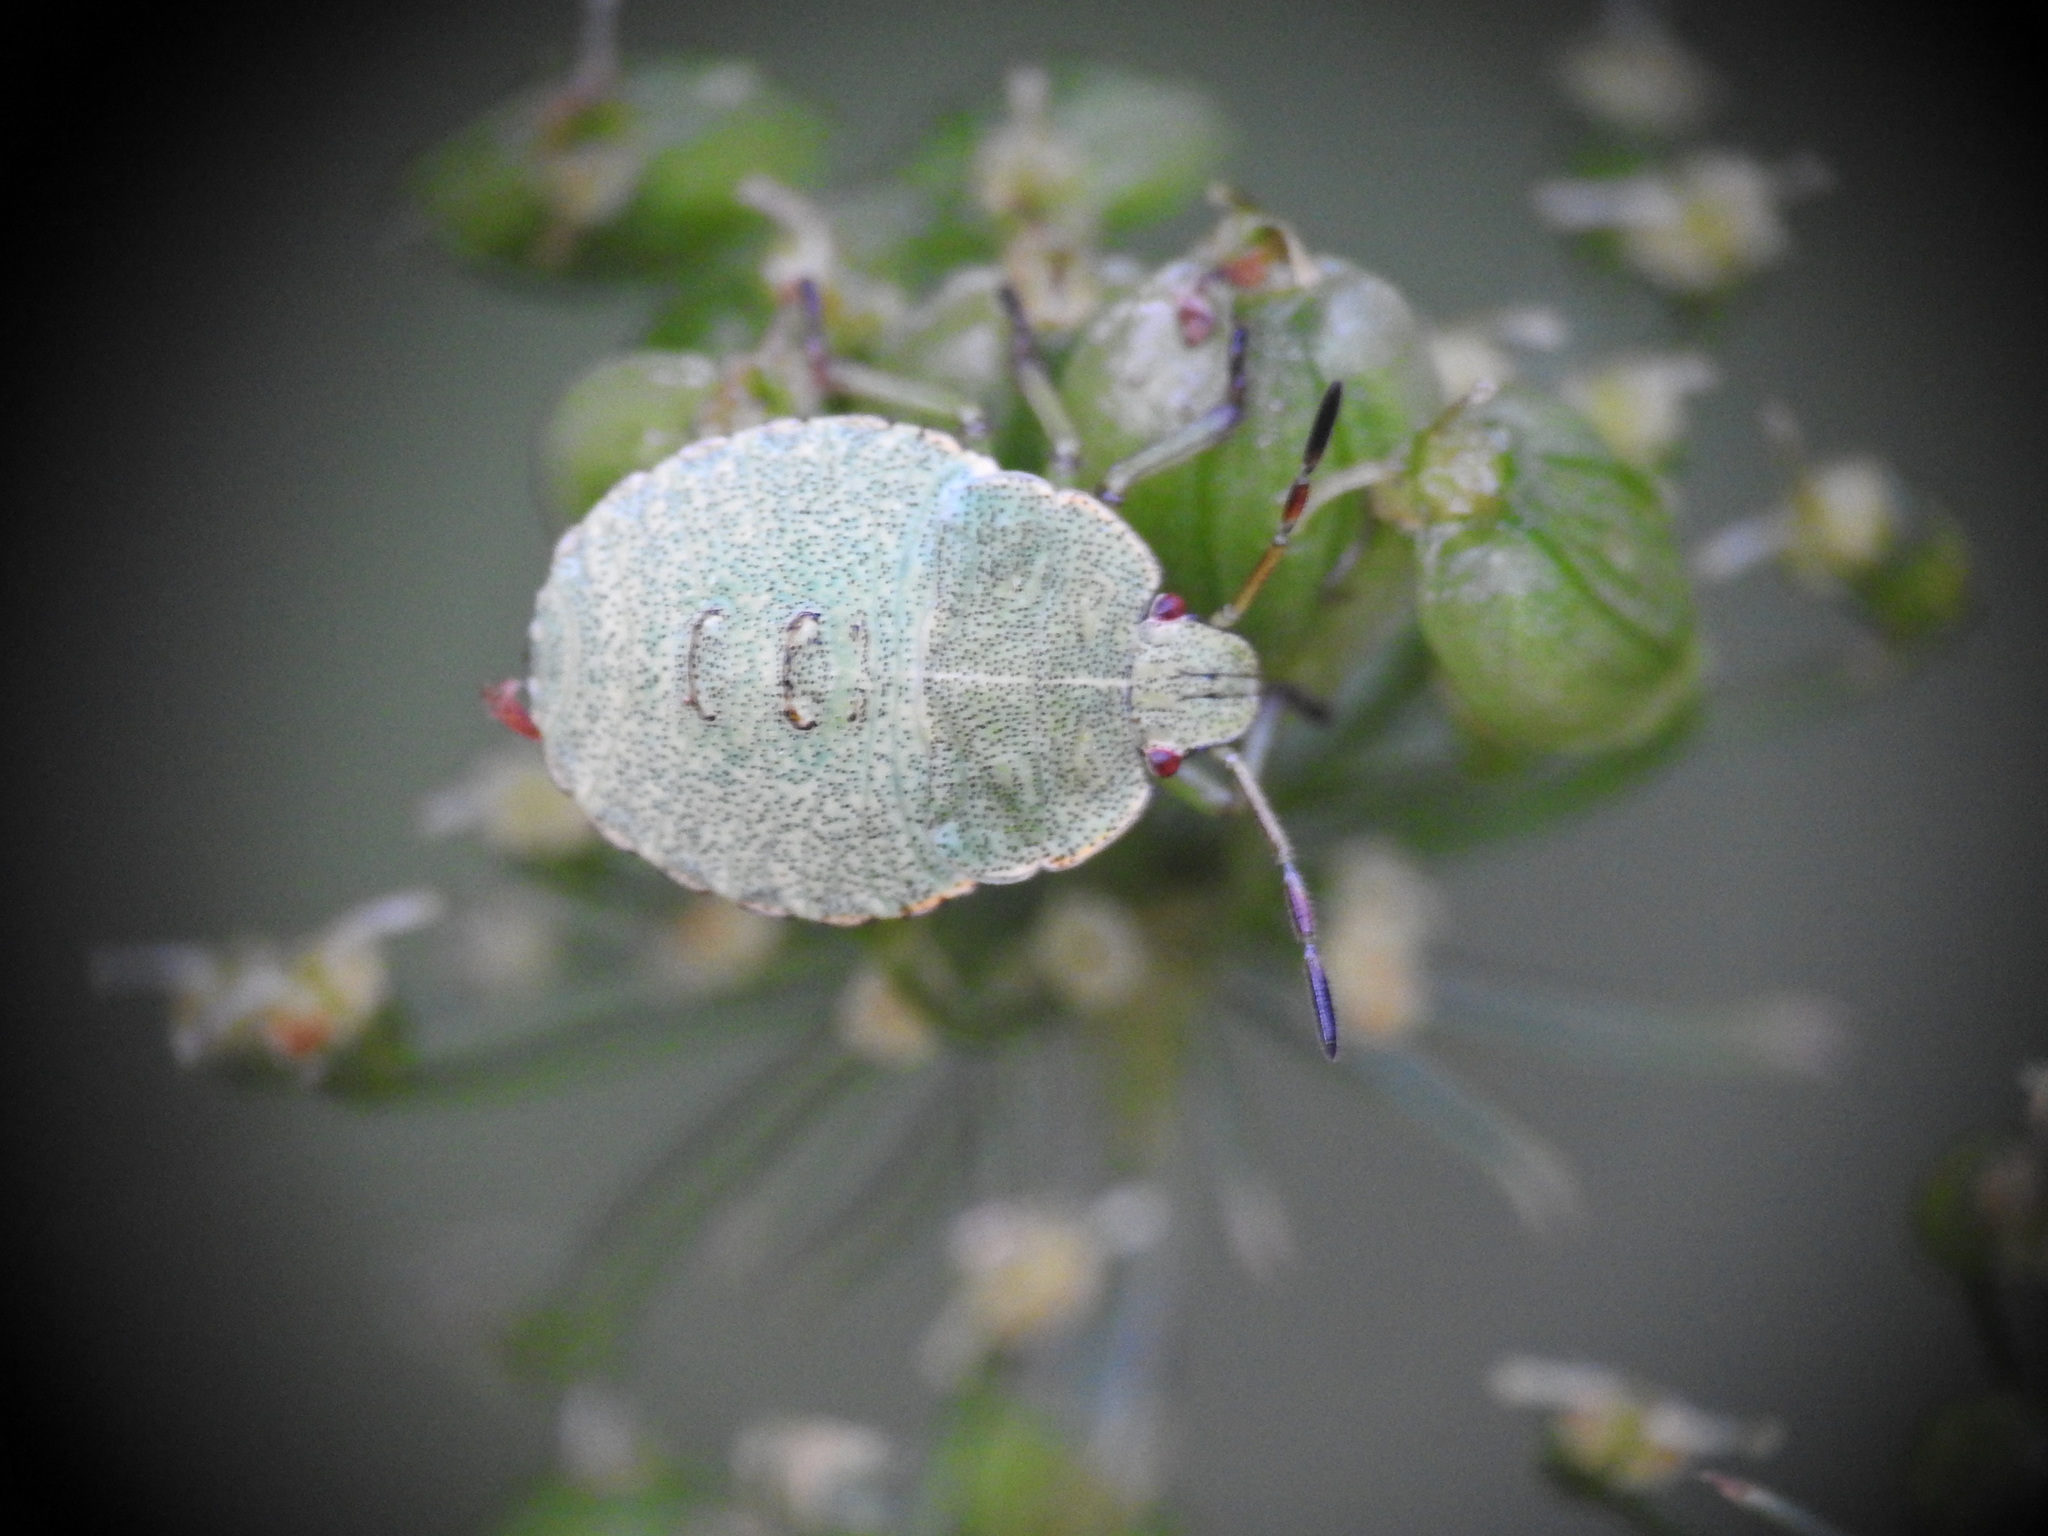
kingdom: Animalia
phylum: Arthropoda
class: Insecta
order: Hemiptera
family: Pentatomidae
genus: Palomena
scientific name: Palomena prasina
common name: Green shieldbug
